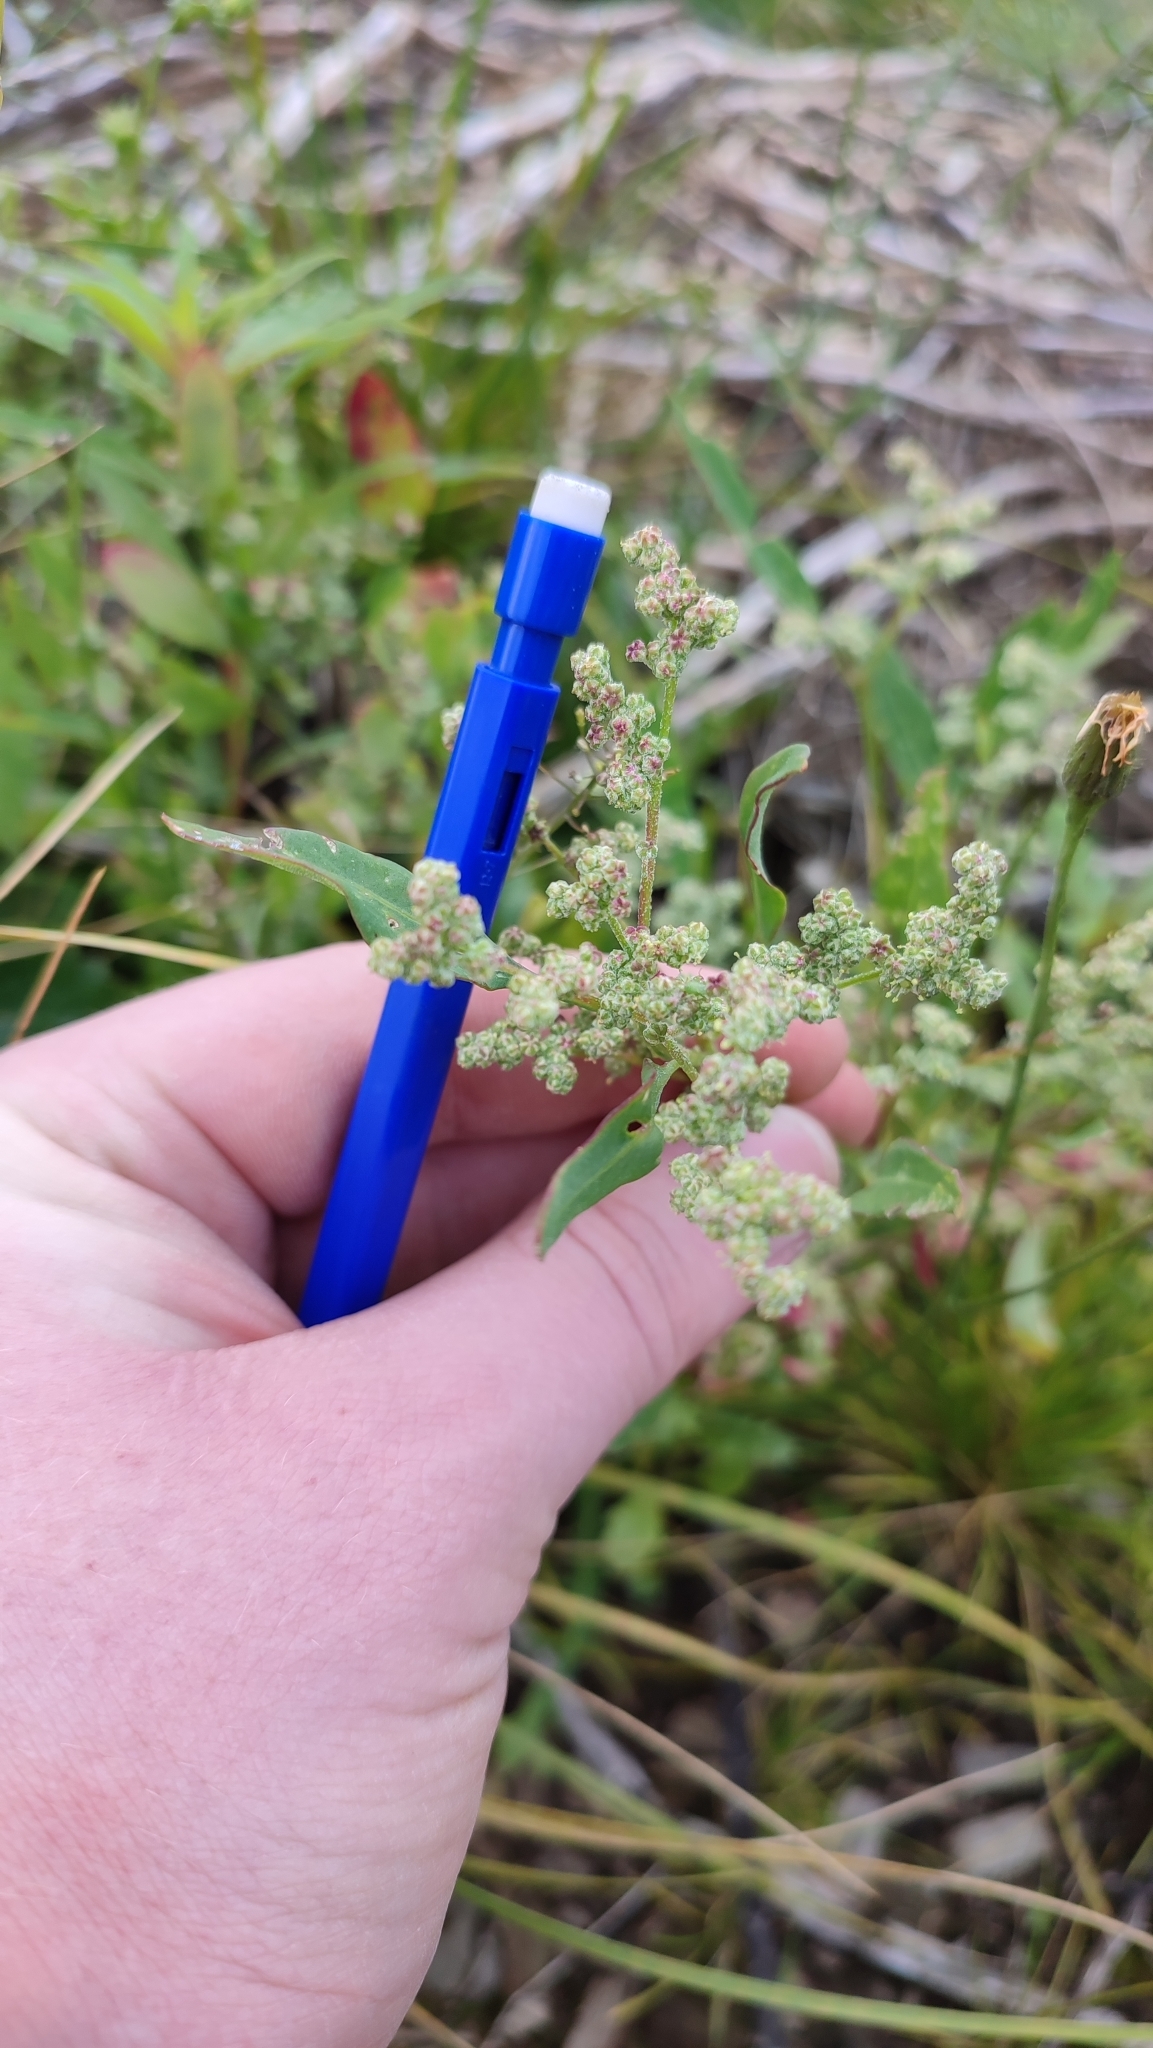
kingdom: Plantae
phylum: Tracheophyta
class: Magnoliopsida
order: Caryophyllales
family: Amaranthaceae
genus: Chenopodium
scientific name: Chenopodium album
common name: Fat-hen
